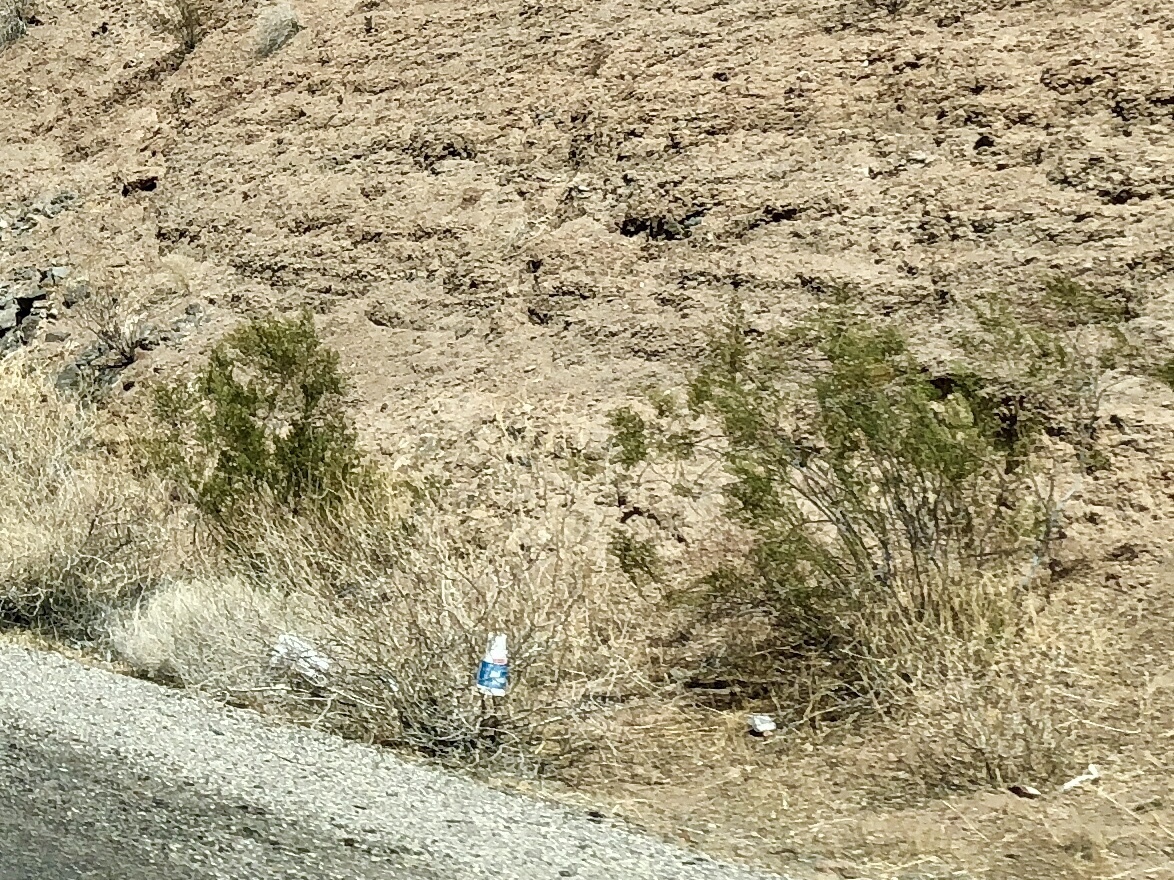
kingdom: Plantae
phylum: Tracheophyta
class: Magnoliopsida
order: Zygophyllales
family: Zygophyllaceae
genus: Larrea
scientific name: Larrea tridentata
